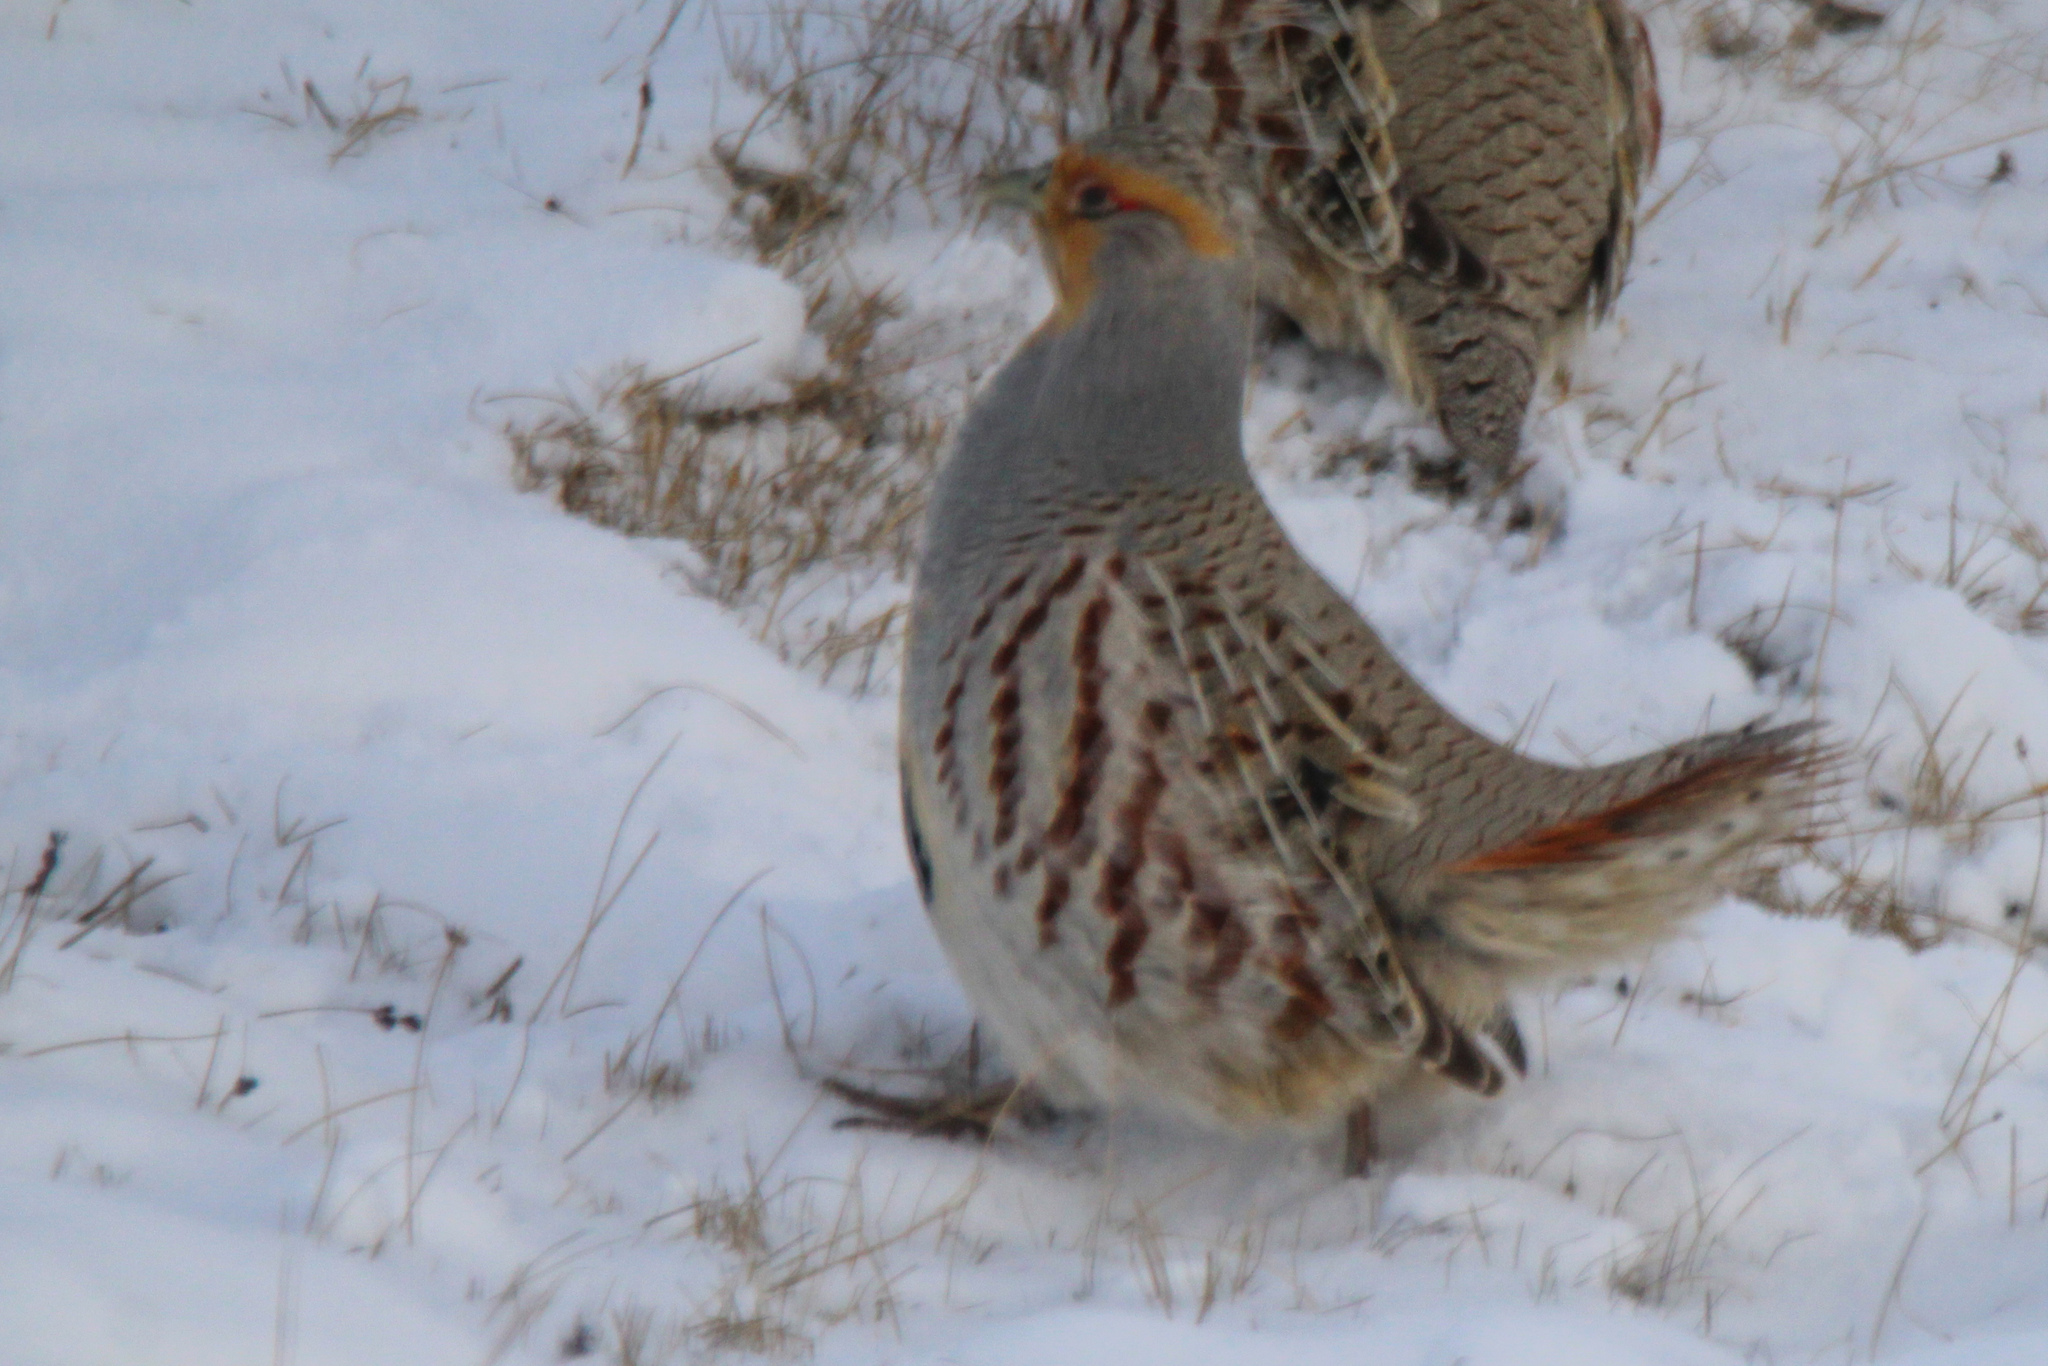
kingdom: Animalia
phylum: Chordata
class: Aves
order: Galliformes
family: Phasianidae
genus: Perdix
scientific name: Perdix dauurica
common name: Daurian partridge
